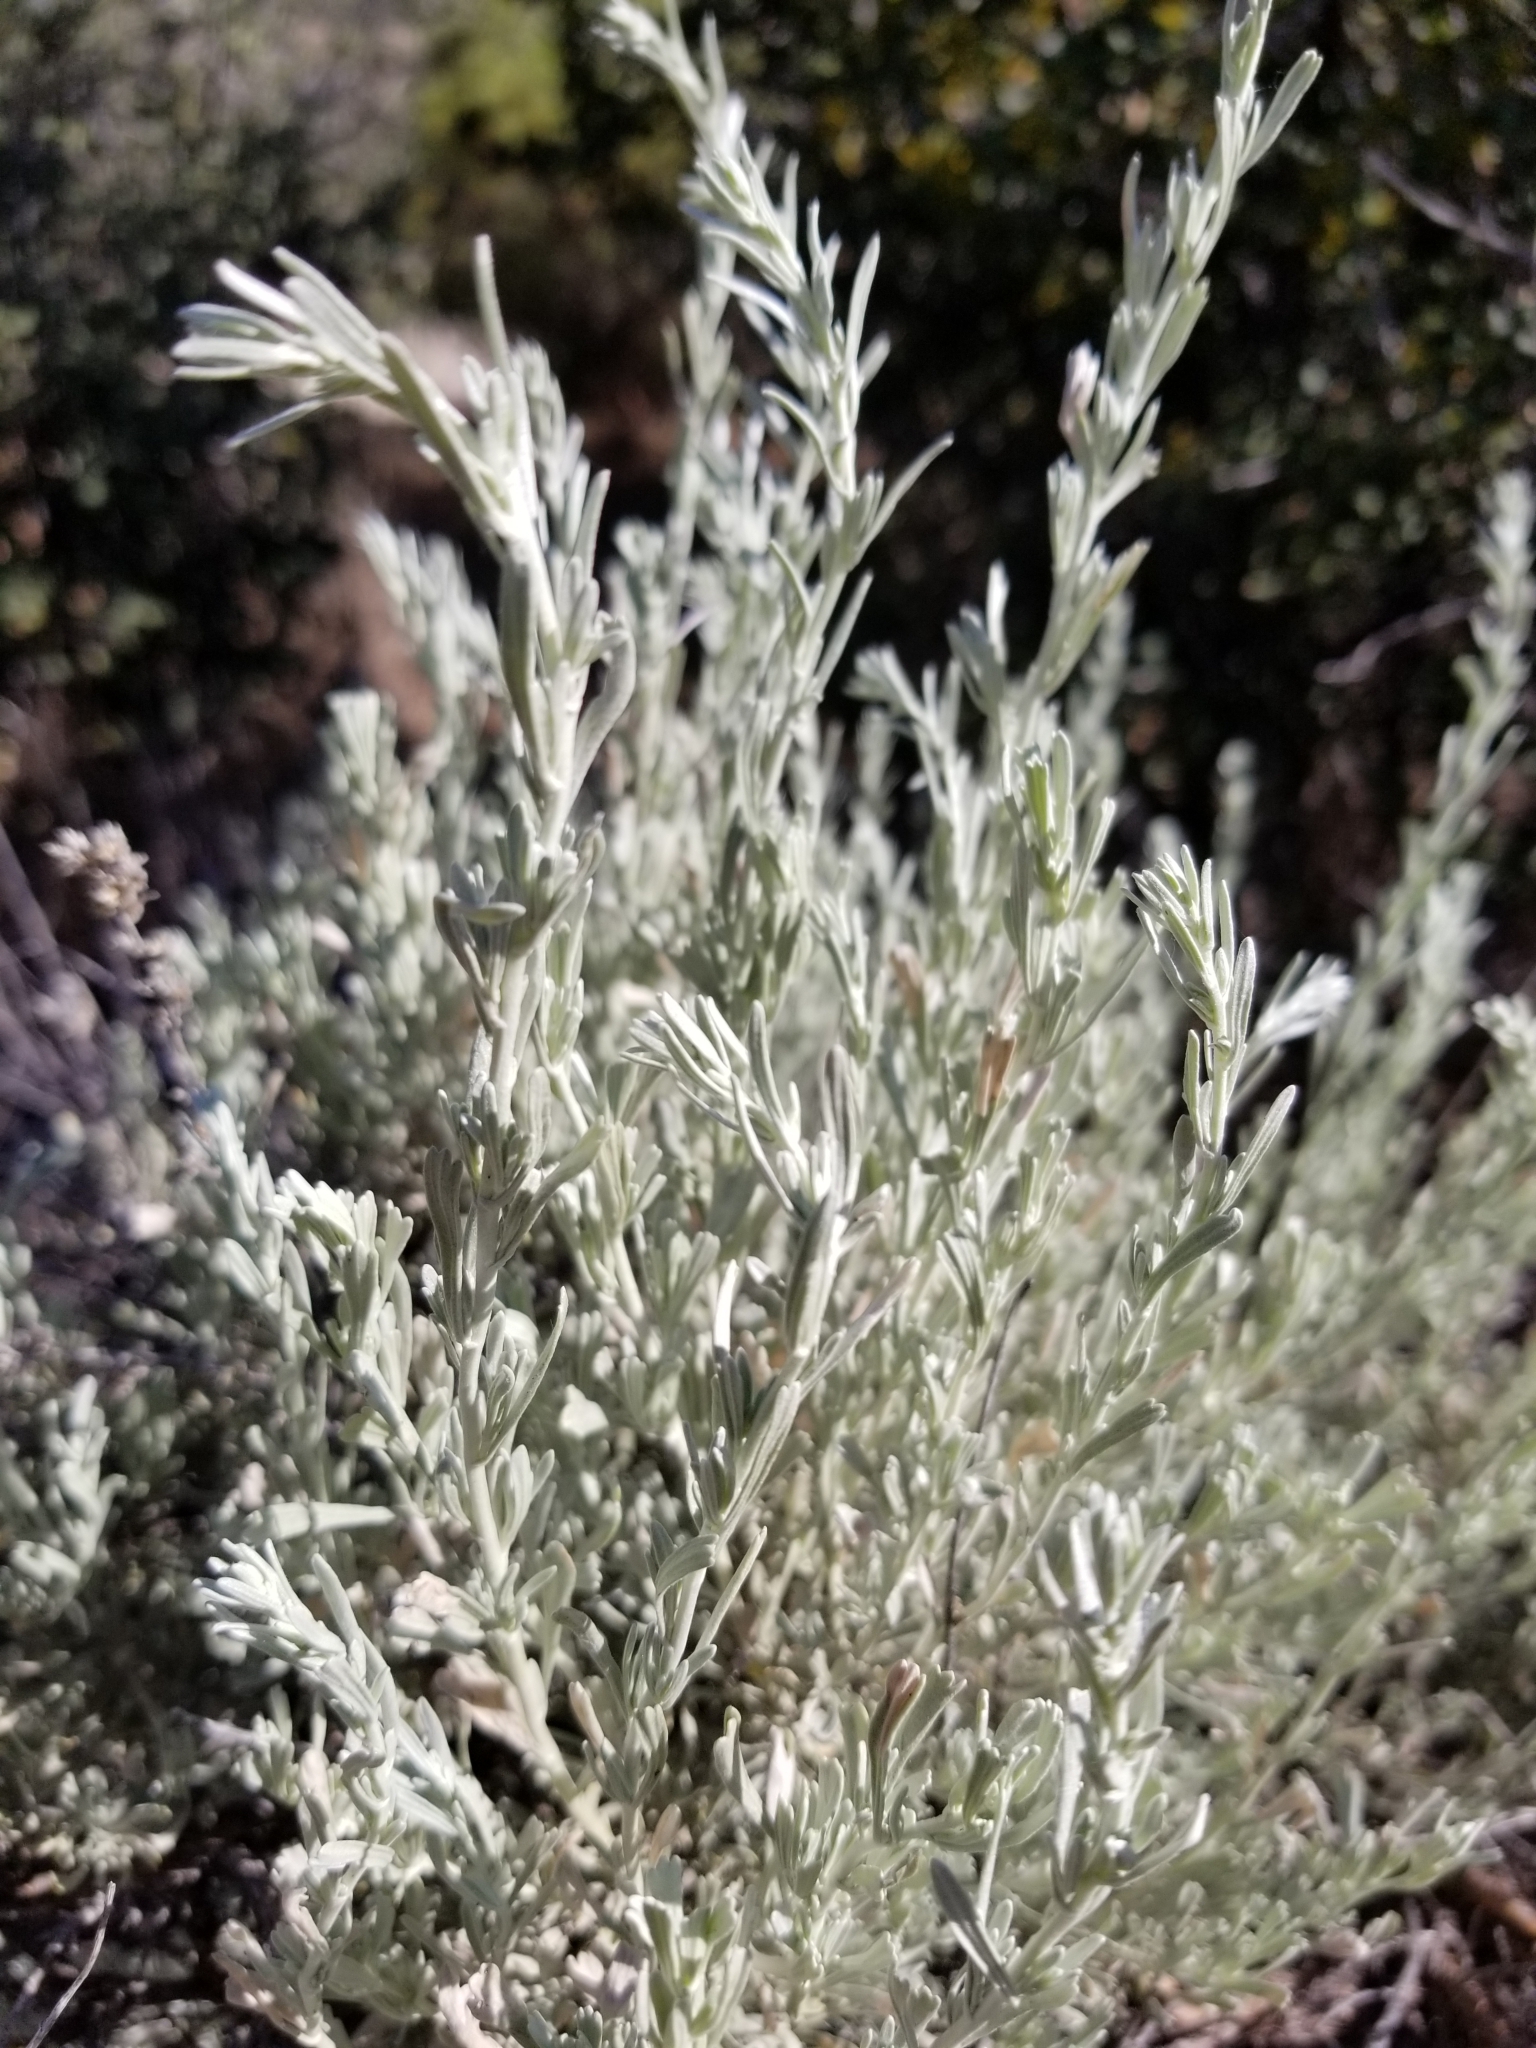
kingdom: Plantae
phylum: Tracheophyta
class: Magnoliopsida
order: Asterales
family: Asteraceae
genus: Artemisia
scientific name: Artemisia tridentata
